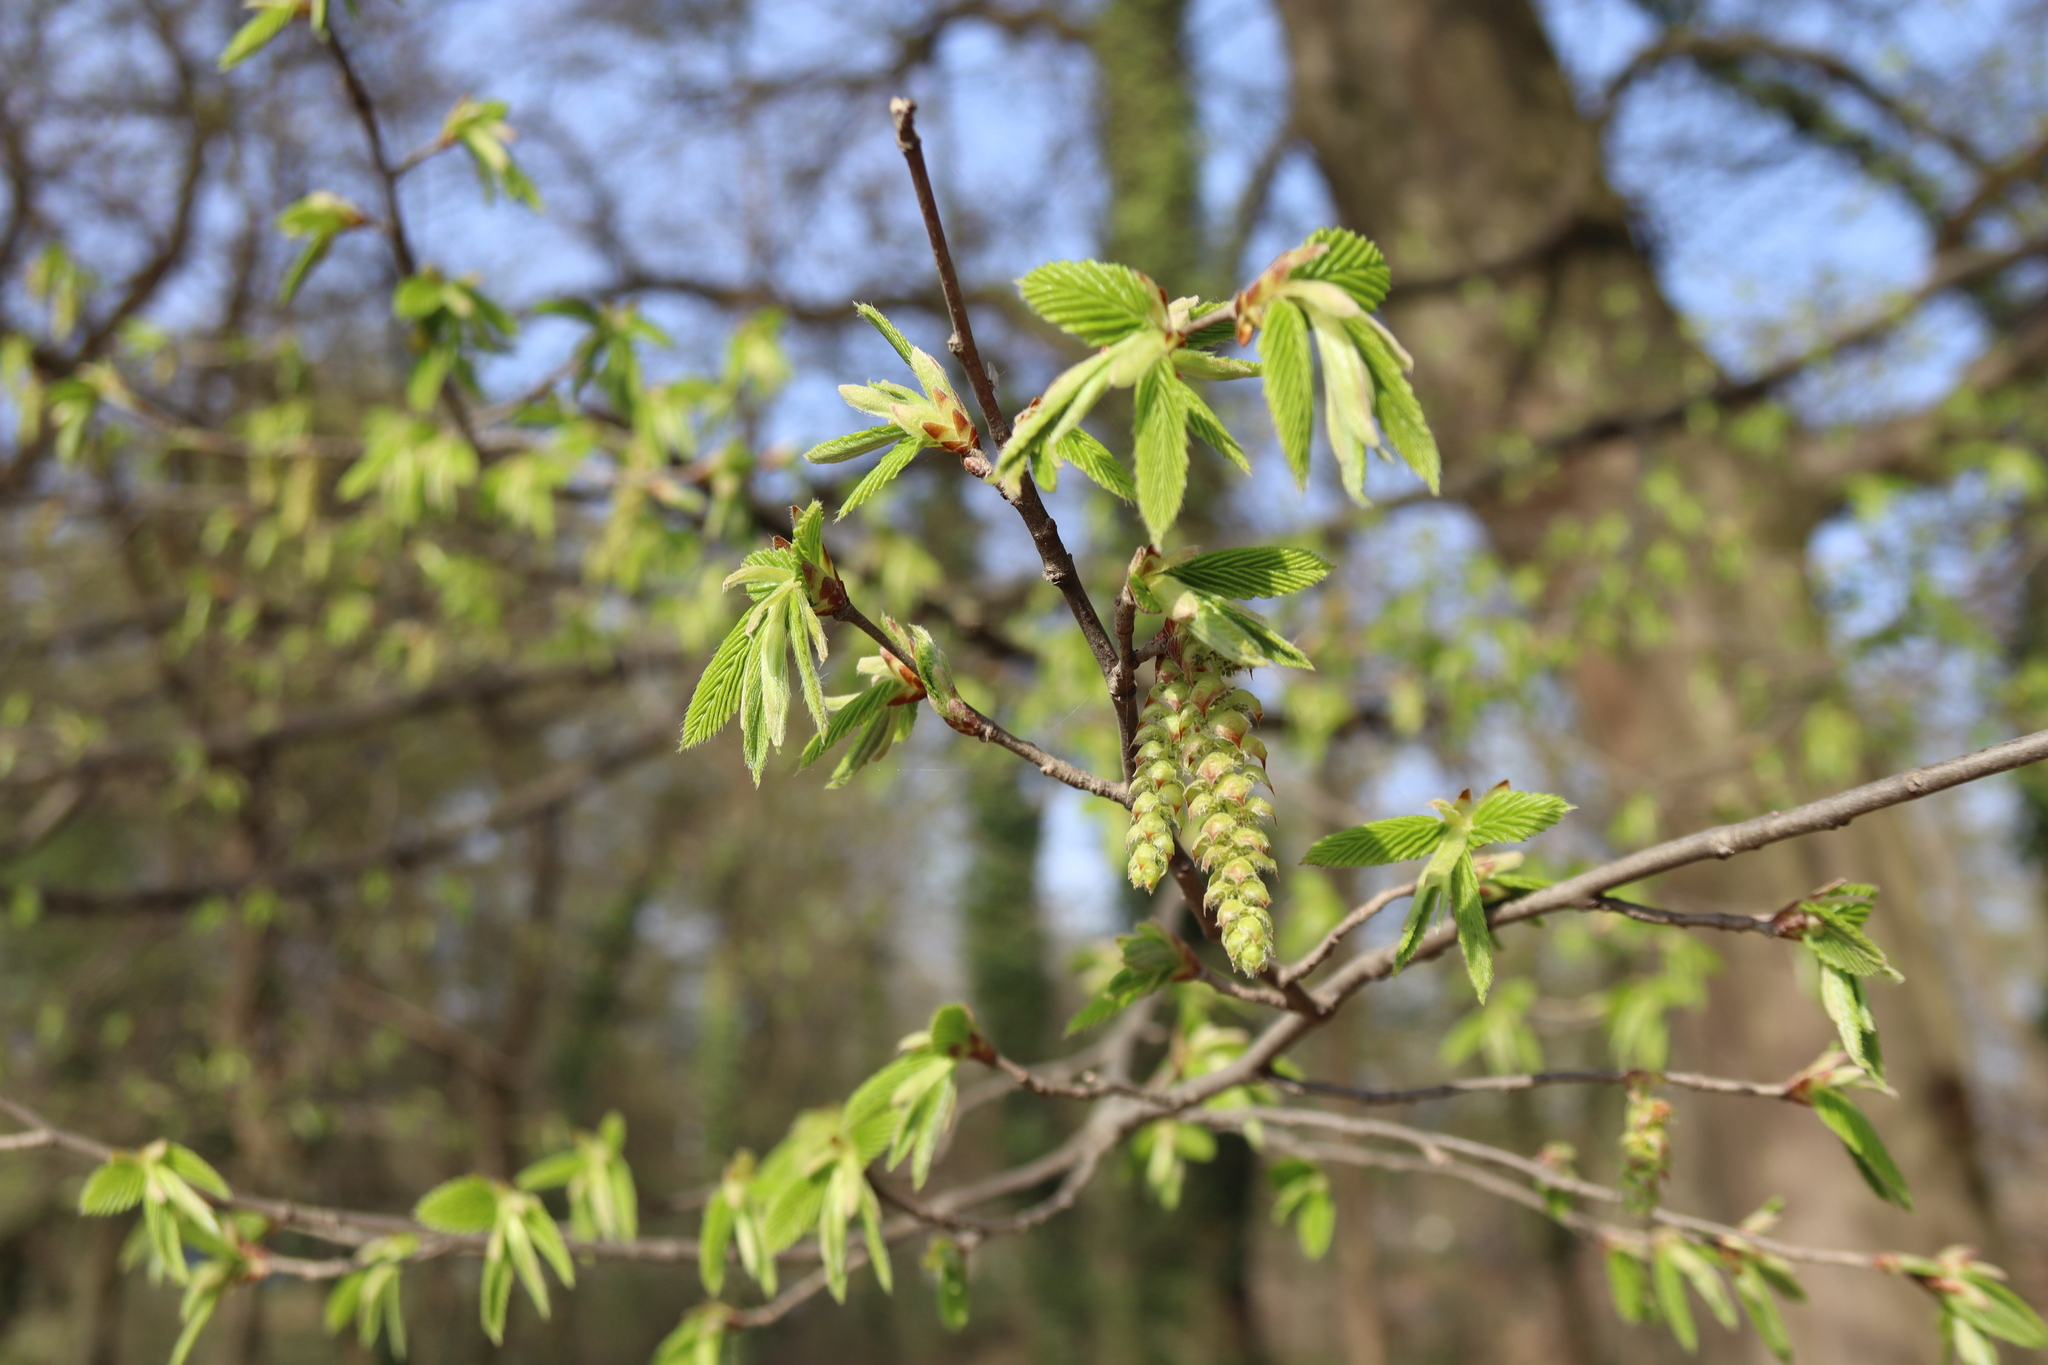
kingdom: Plantae
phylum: Tracheophyta
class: Magnoliopsida
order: Fagales
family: Betulaceae
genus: Carpinus
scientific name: Carpinus betulus
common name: Hornbeam
